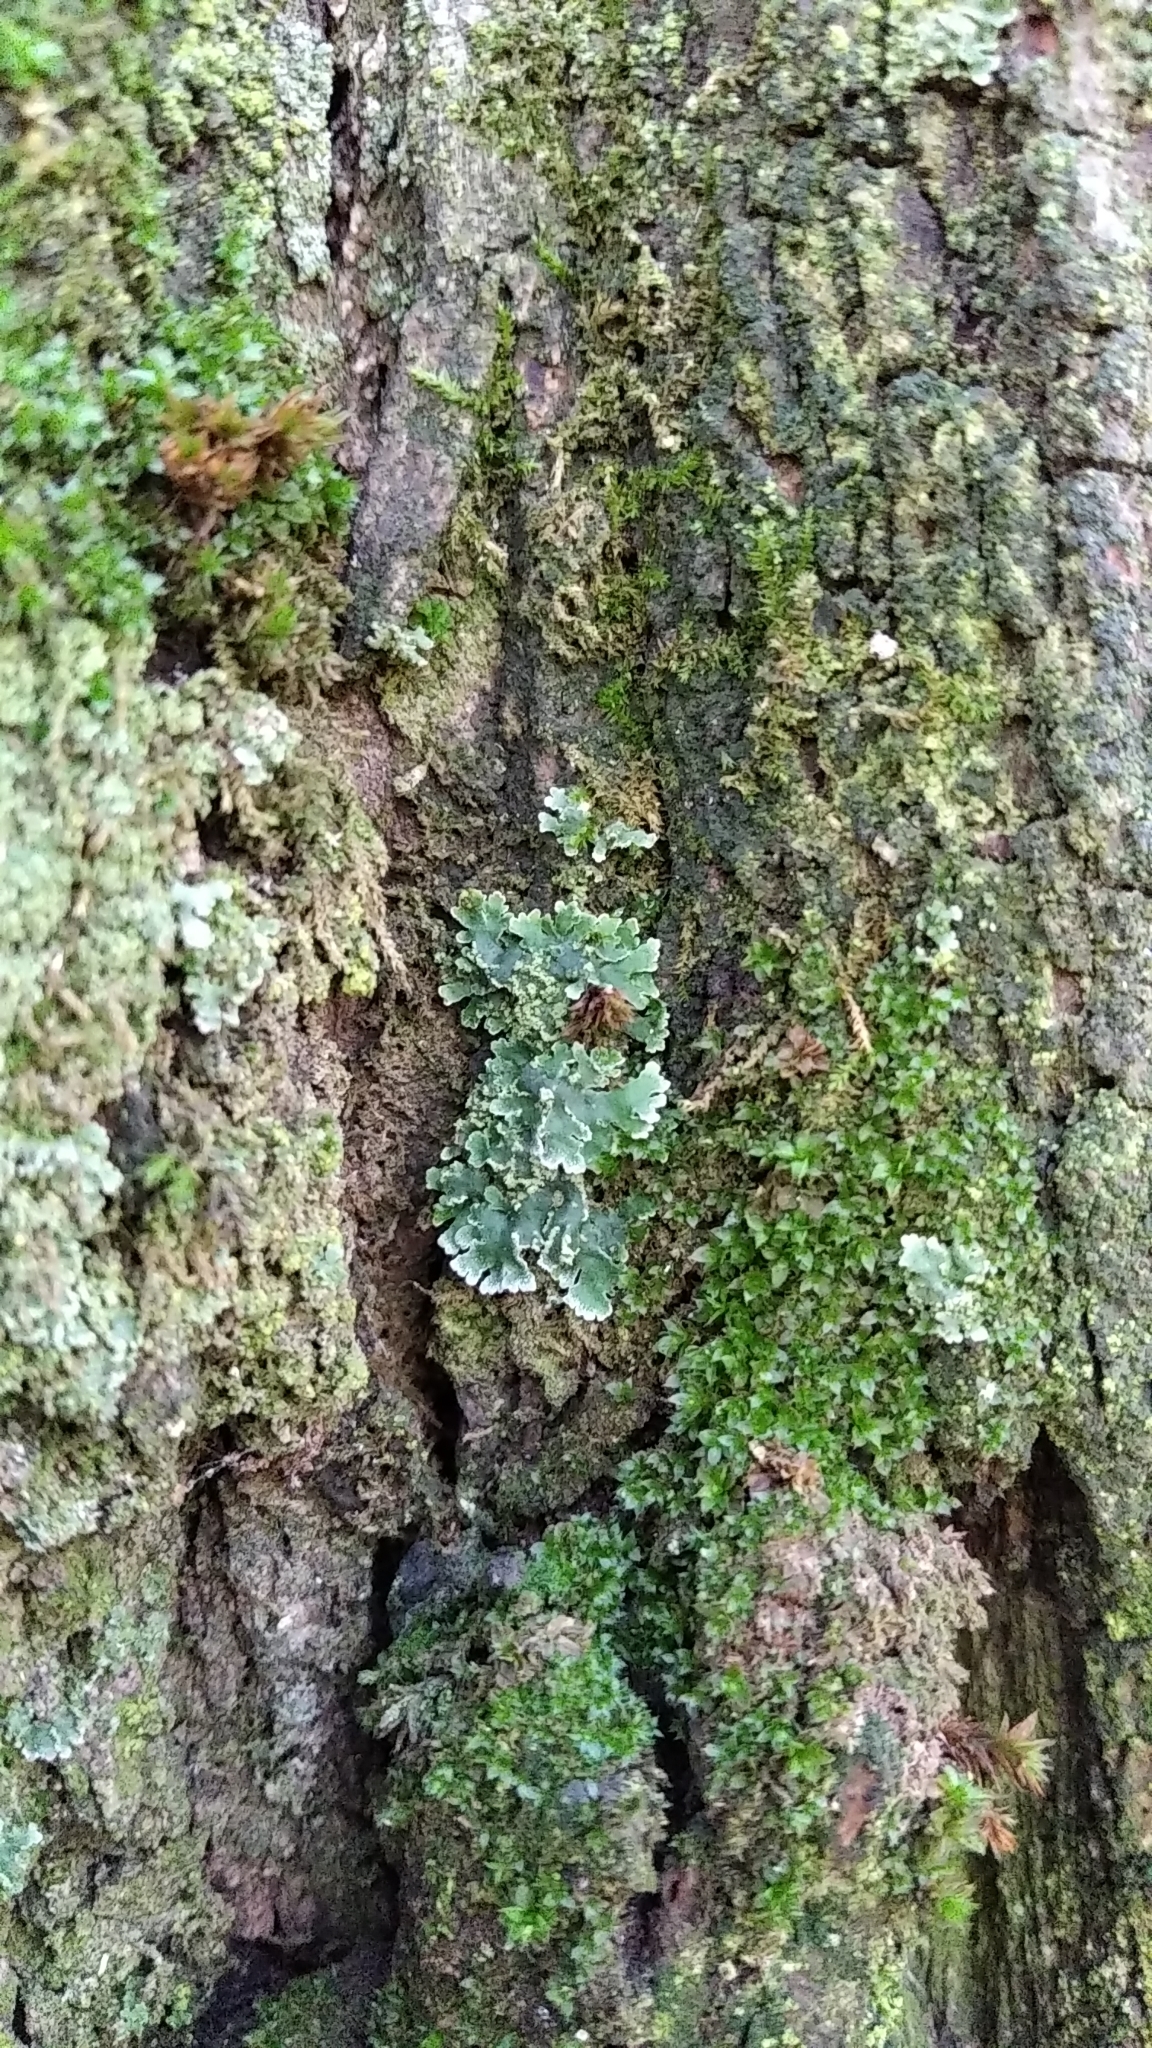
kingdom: Fungi
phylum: Ascomycota
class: Lecanoromycetes
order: Caliciales
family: Physciaceae
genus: Poeltonia
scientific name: Poeltonia grisea
